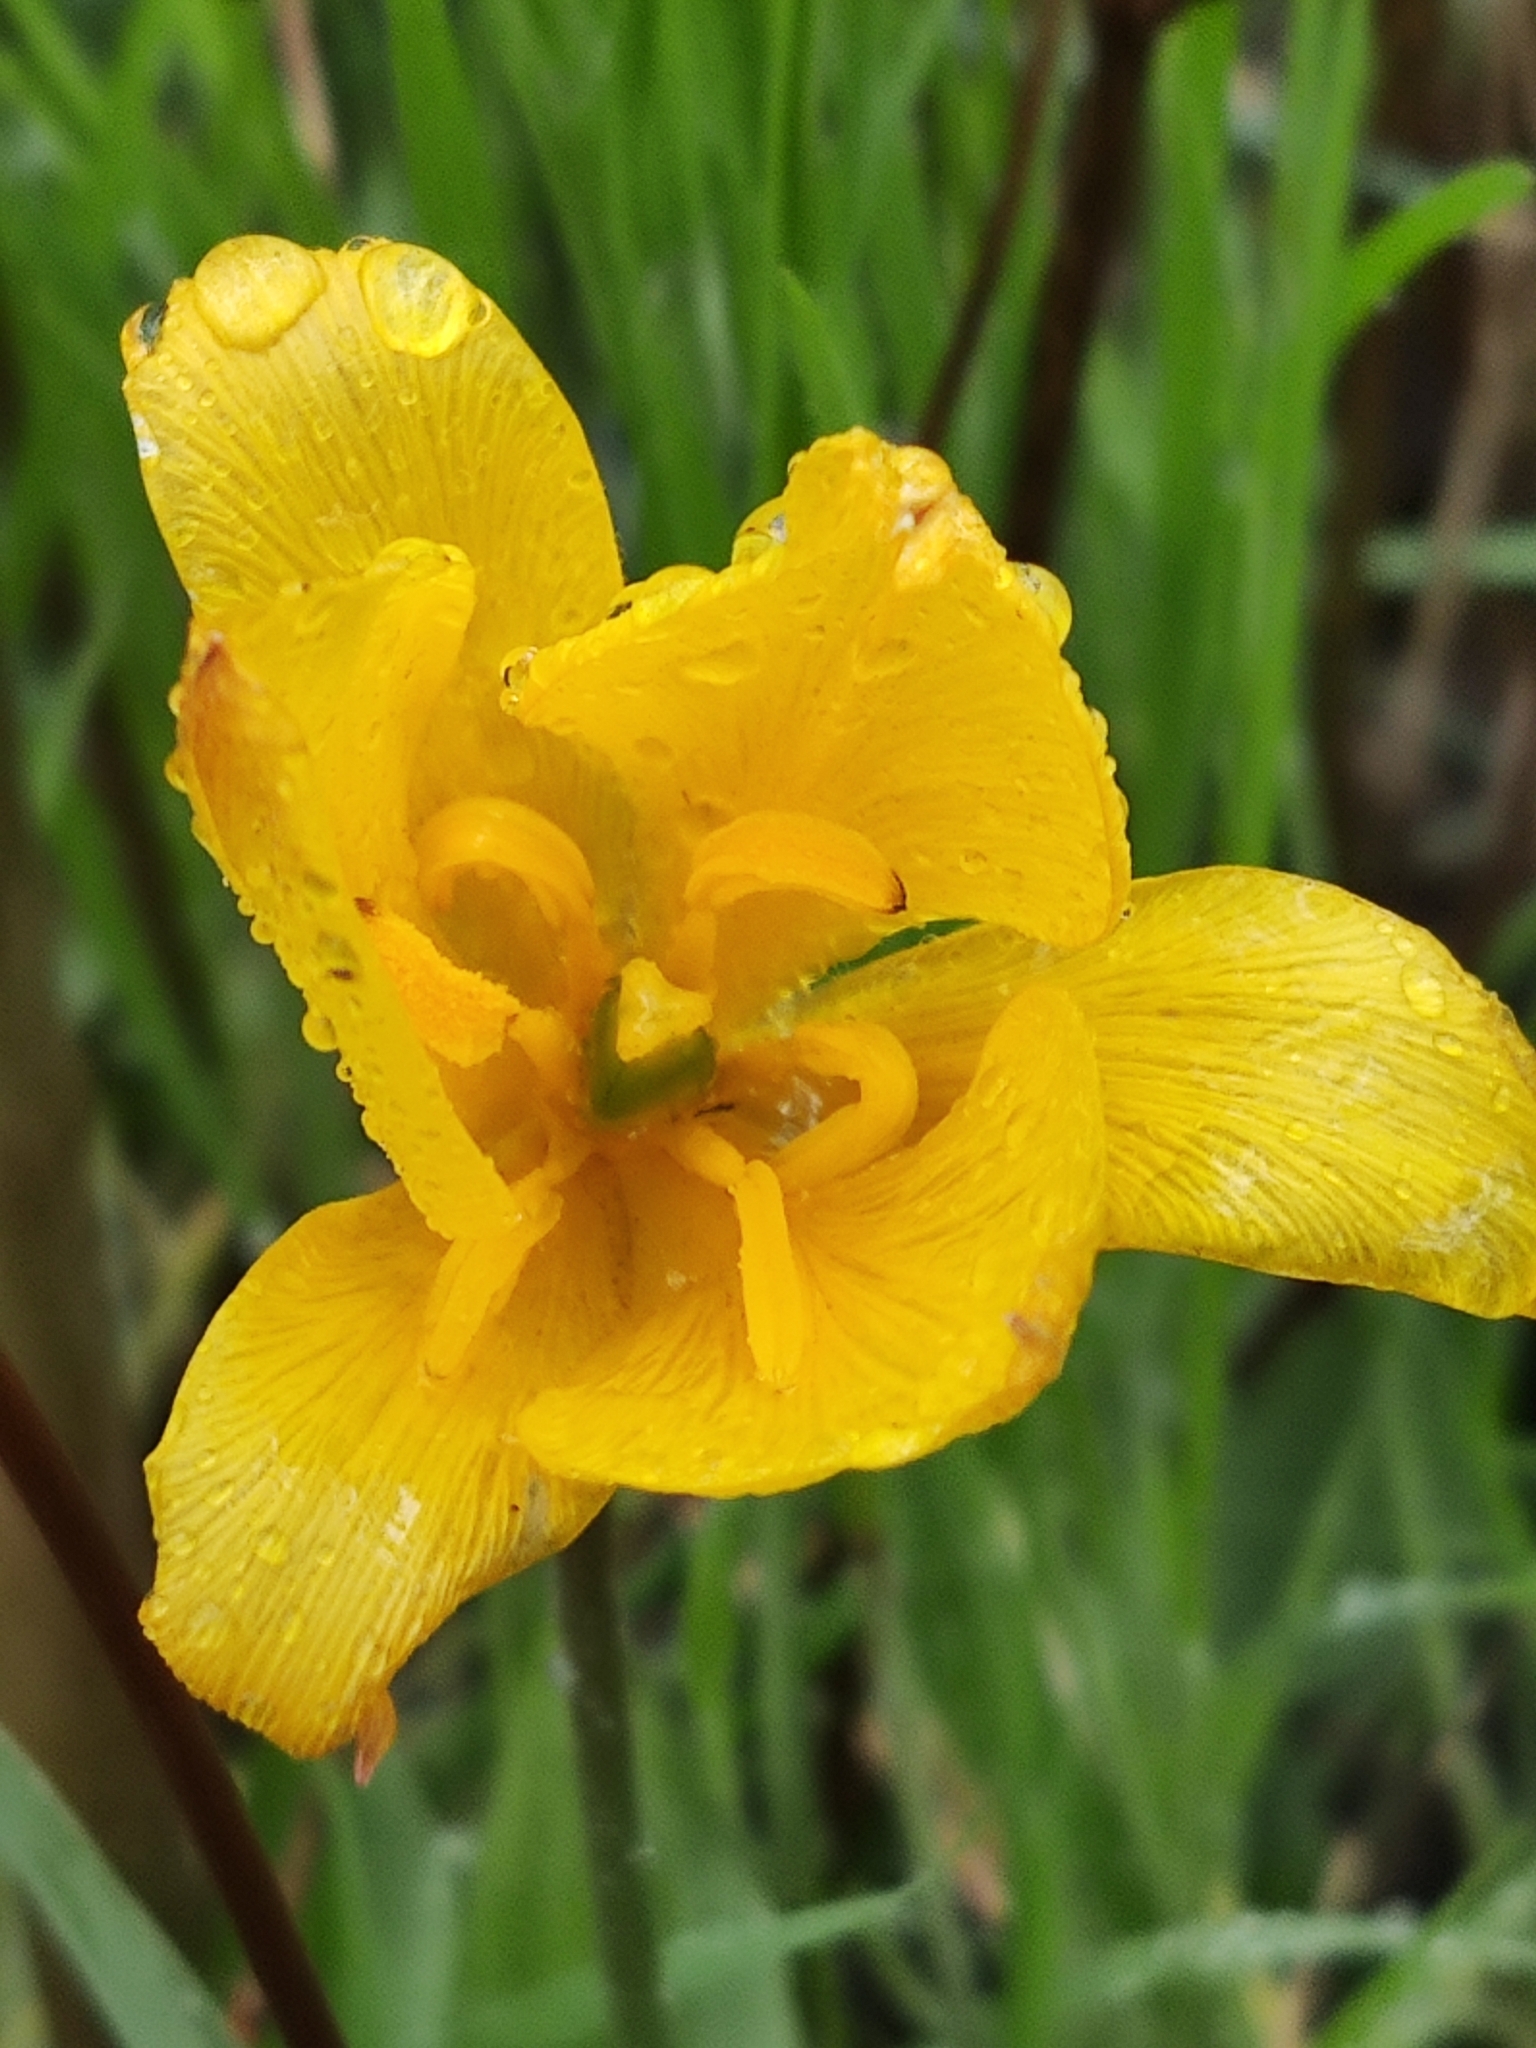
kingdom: Plantae
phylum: Tracheophyta
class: Liliopsida
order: Liliales
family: Liliaceae
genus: Tulipa
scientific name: Tulipa sylvestris
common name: Wild tulip
